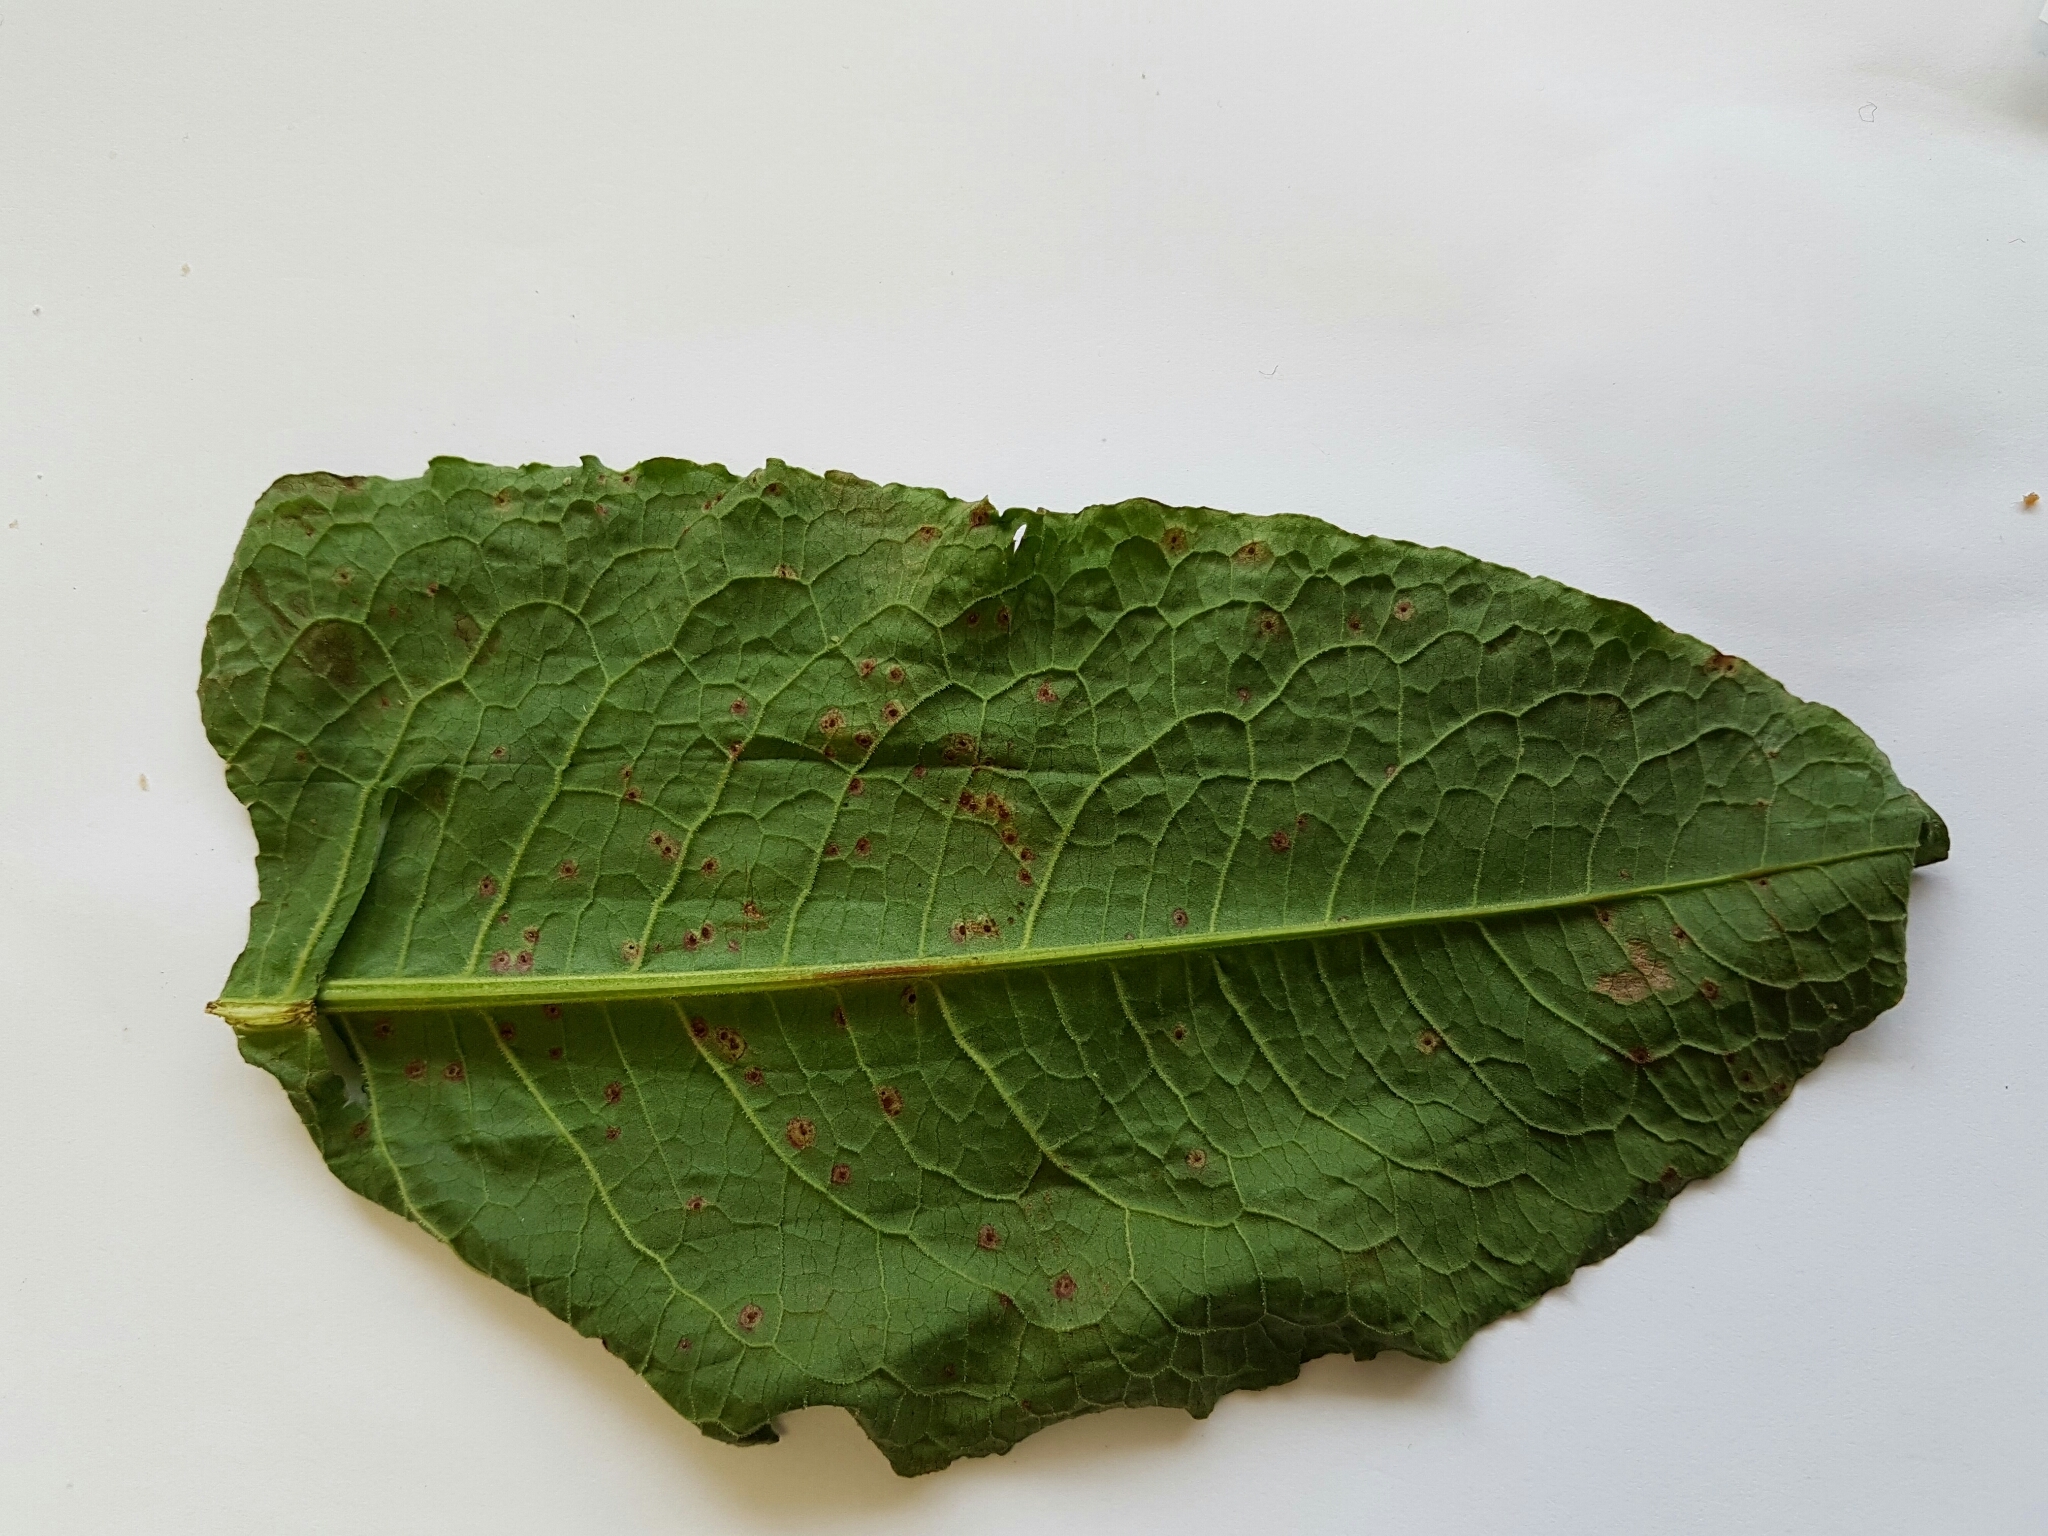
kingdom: Fungi
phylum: Basidiomycota
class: Pucciniomycetes
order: Pucciniales
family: Pucciniaceae
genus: Uromyces
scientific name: Uromyces rumicis
